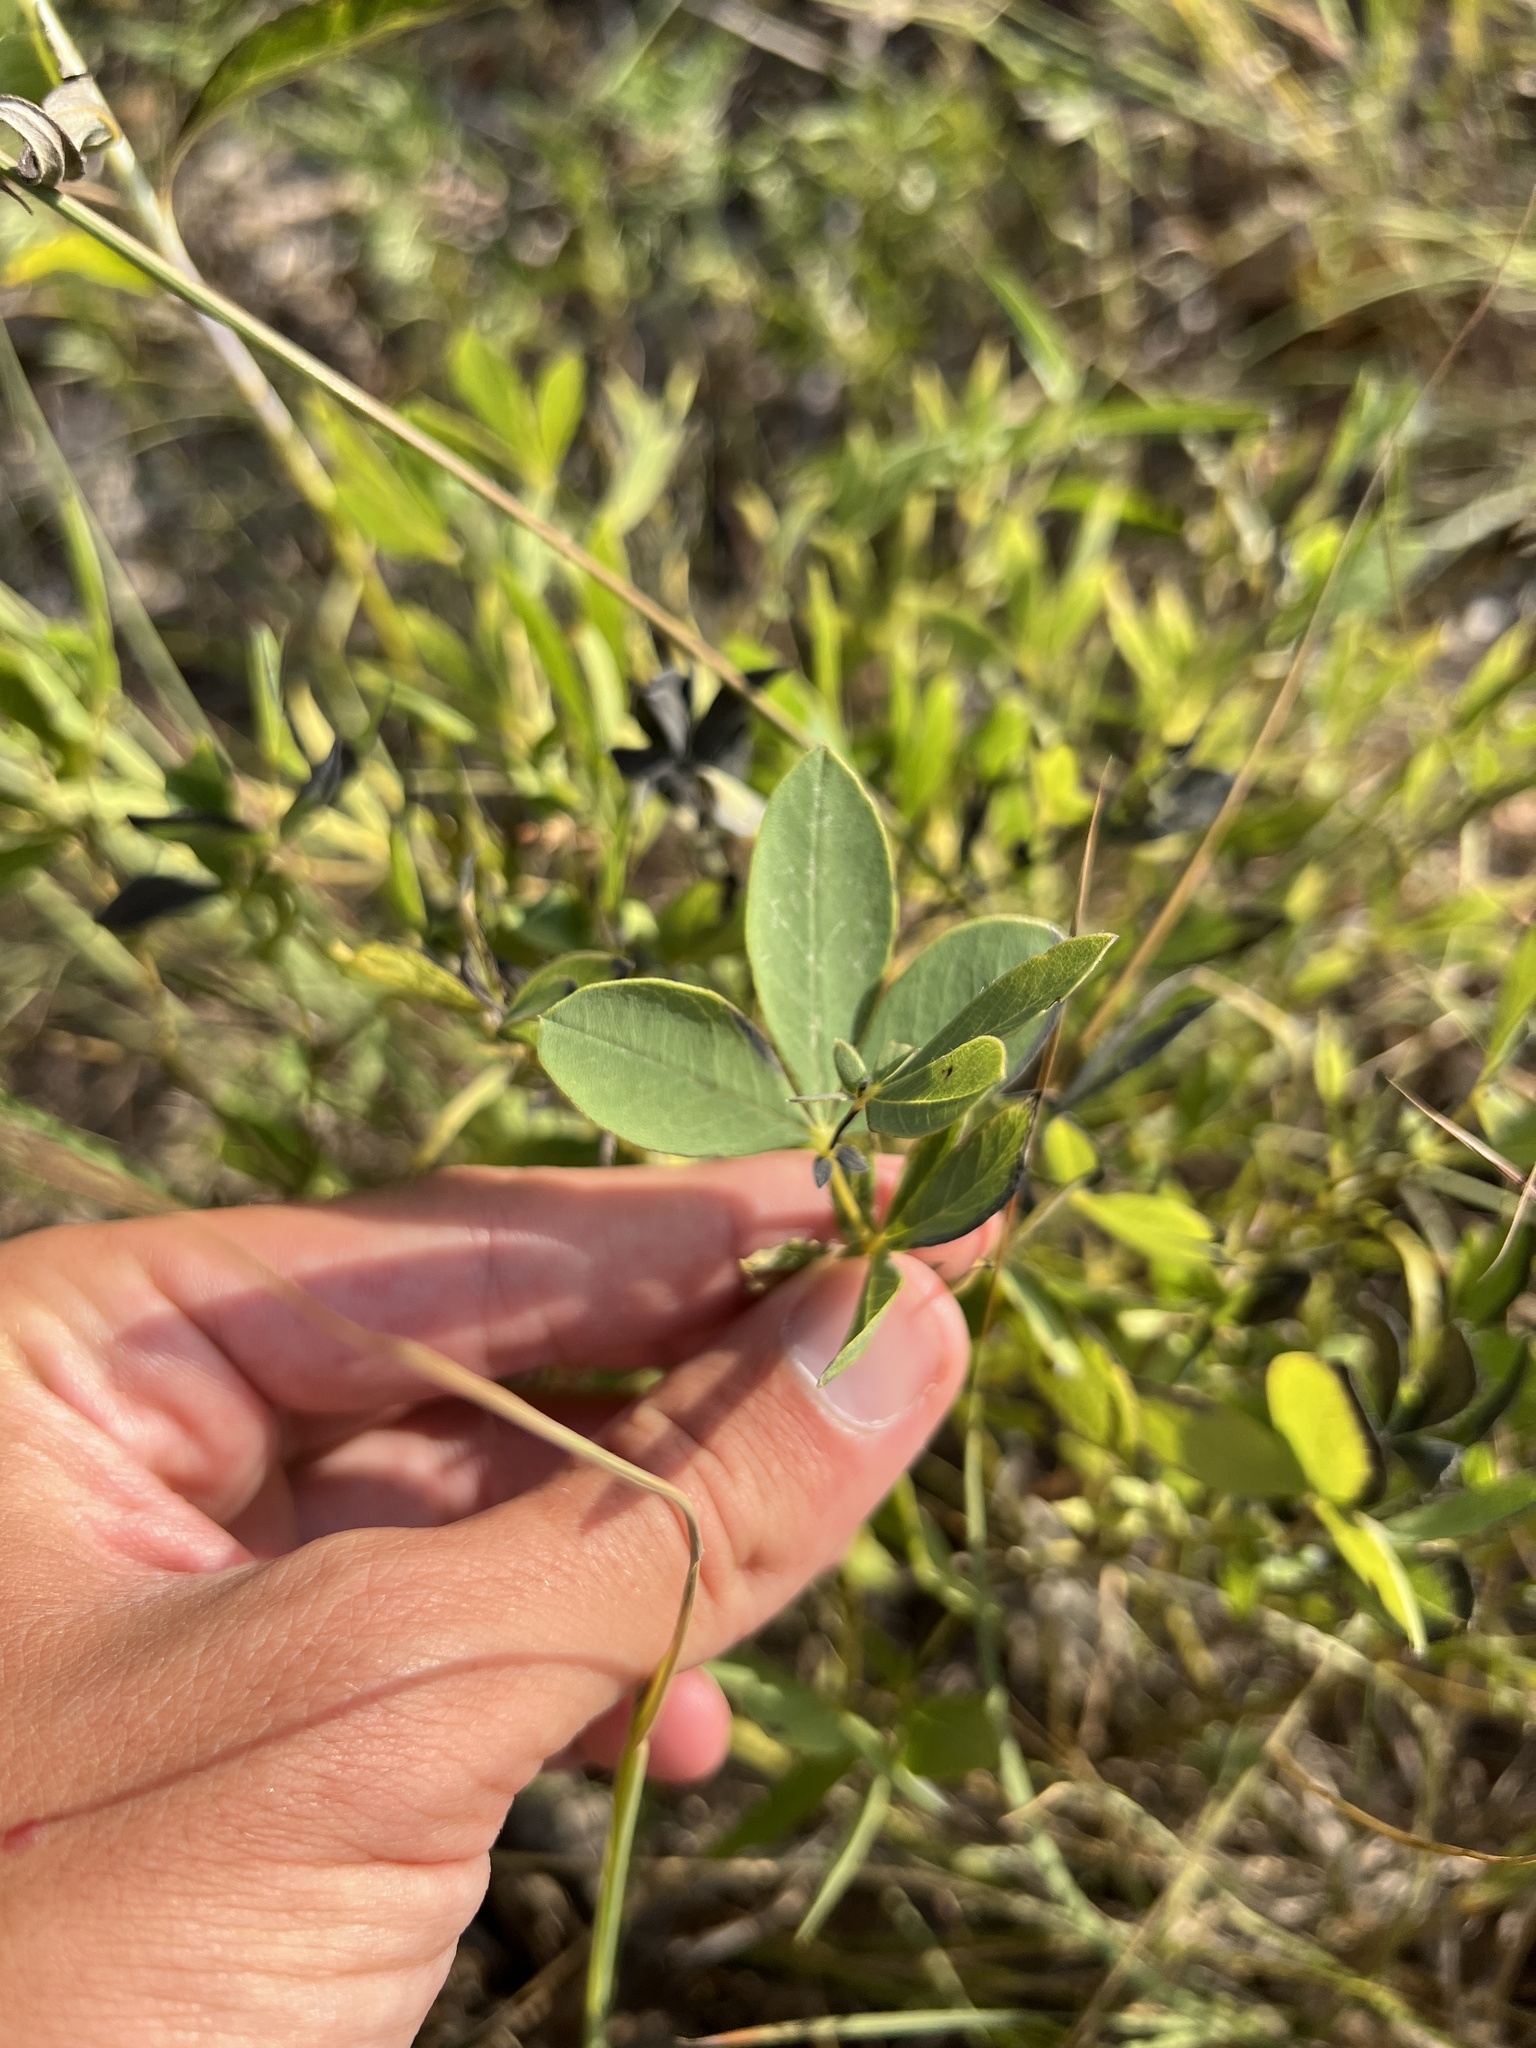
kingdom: Plantae
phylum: Tracheophyta
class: Magnoliopsida
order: Fabales
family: Fabaceae
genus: Baptisia
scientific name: Baptisia australis
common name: Blue false indigo
